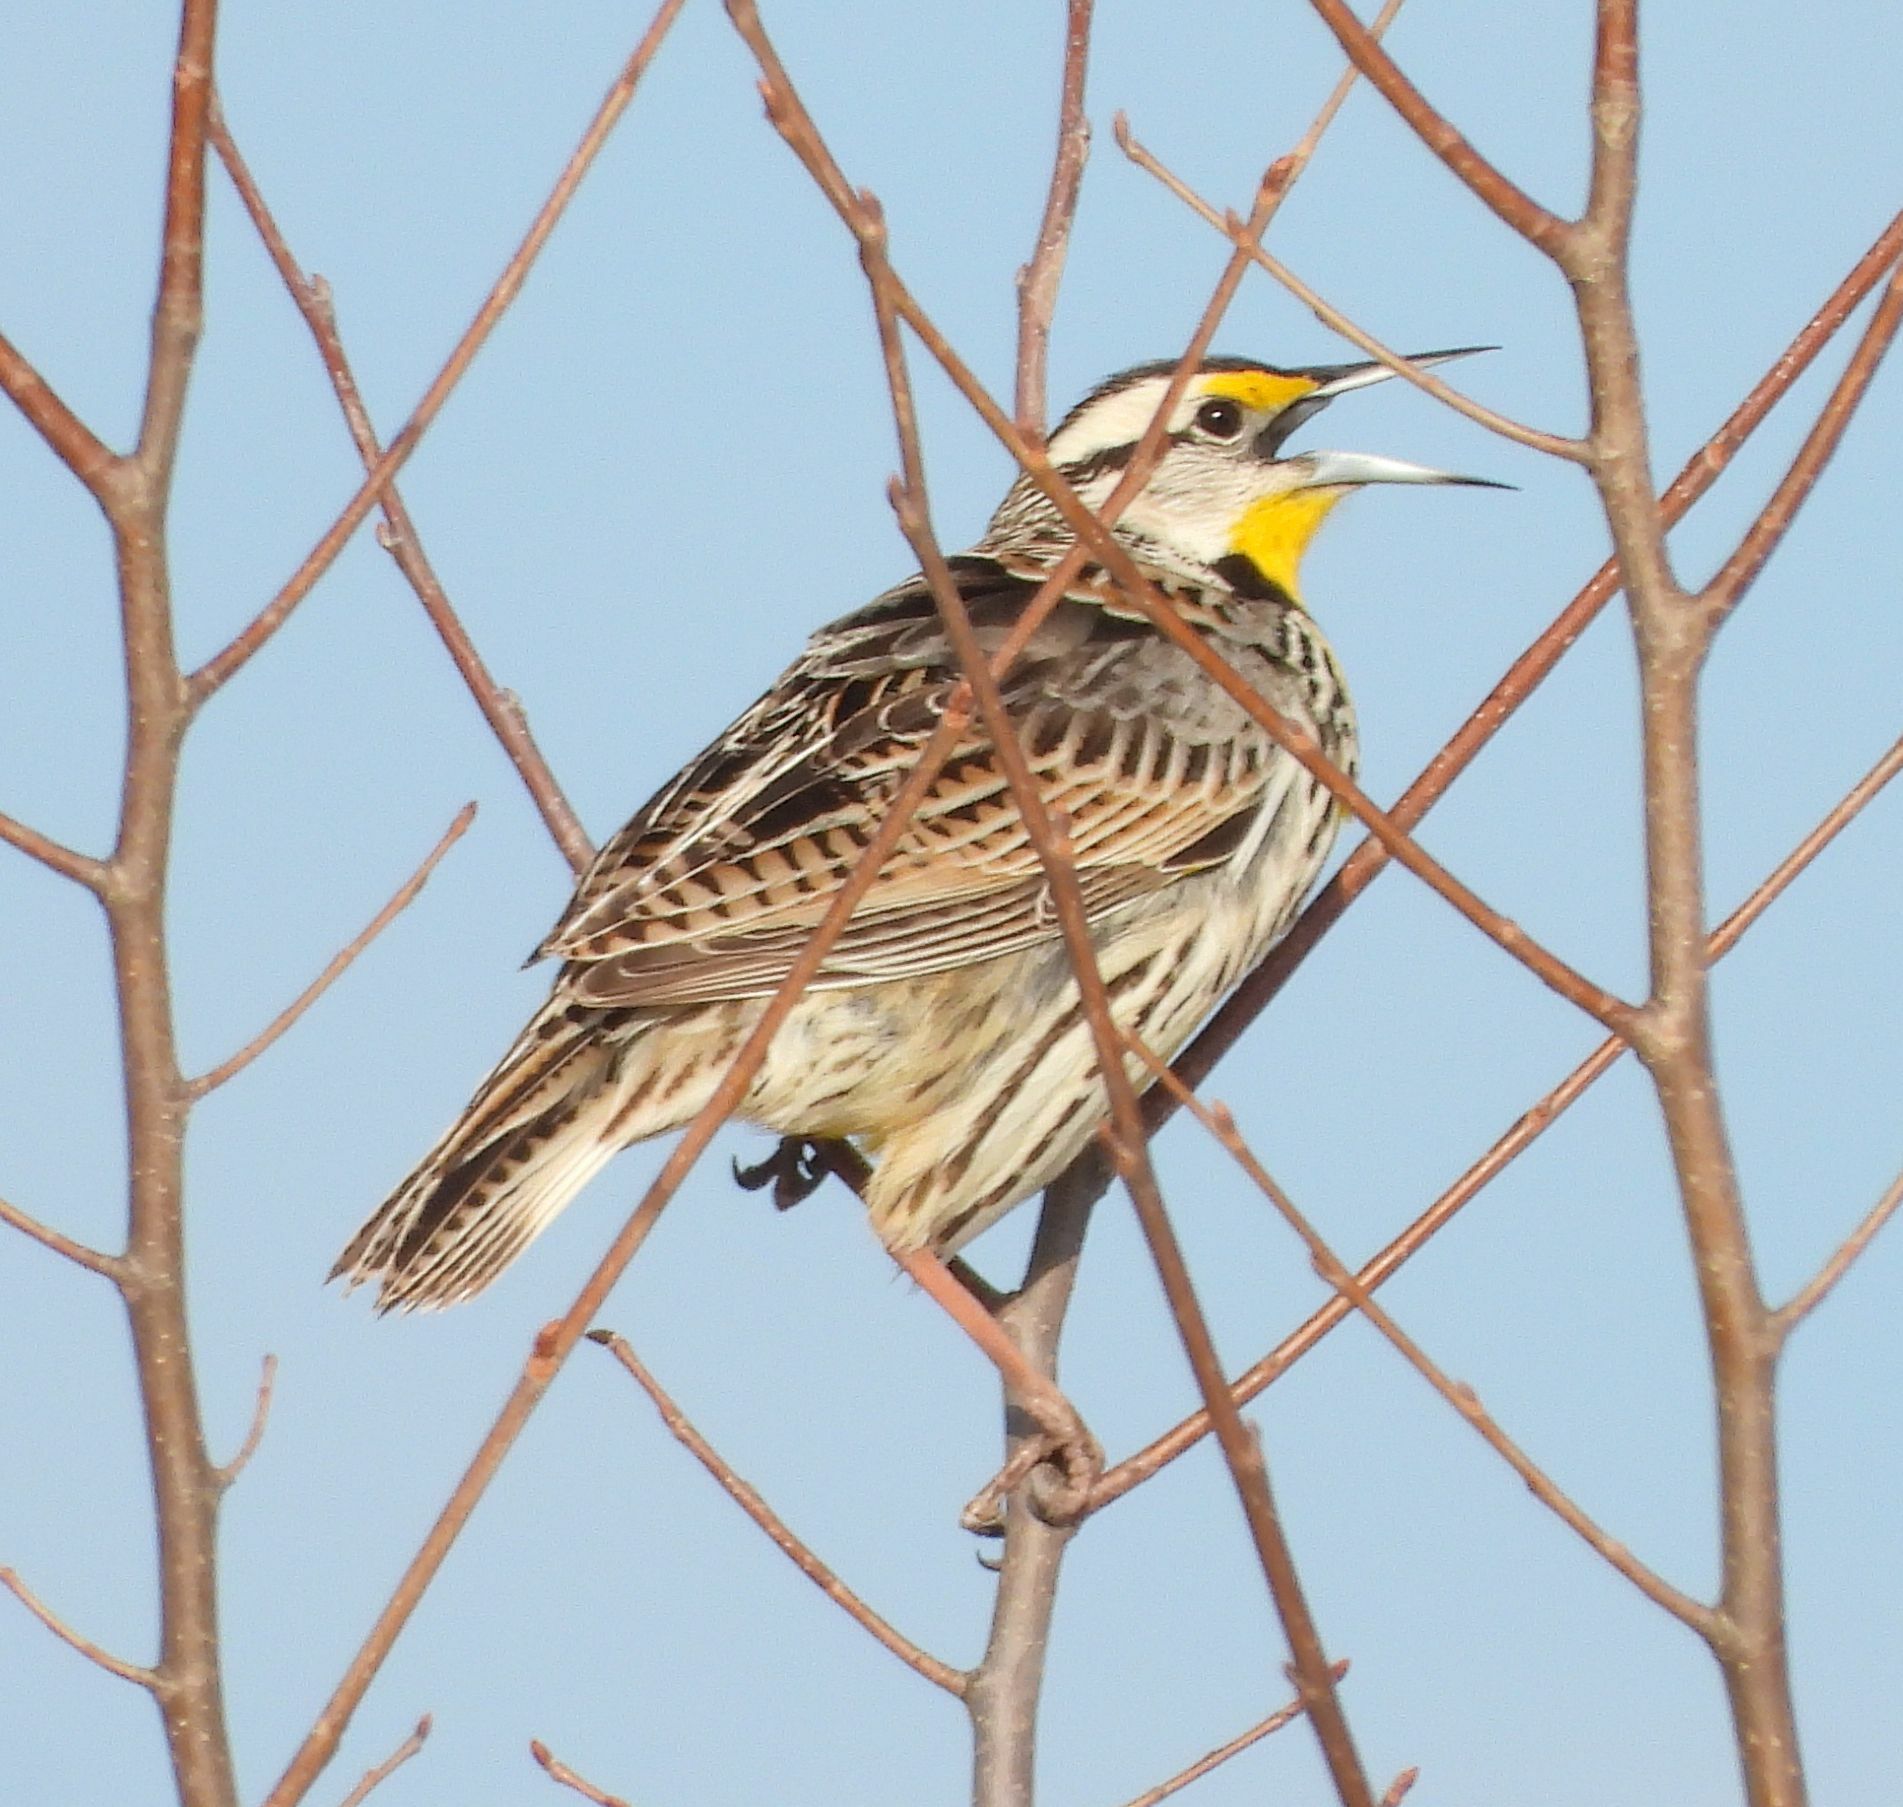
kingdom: Animalia
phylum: Chordata
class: Aves
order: Passeriformes
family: Icteridae
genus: Sturnella
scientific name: Sturnella magna
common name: Eastern meadowlark
